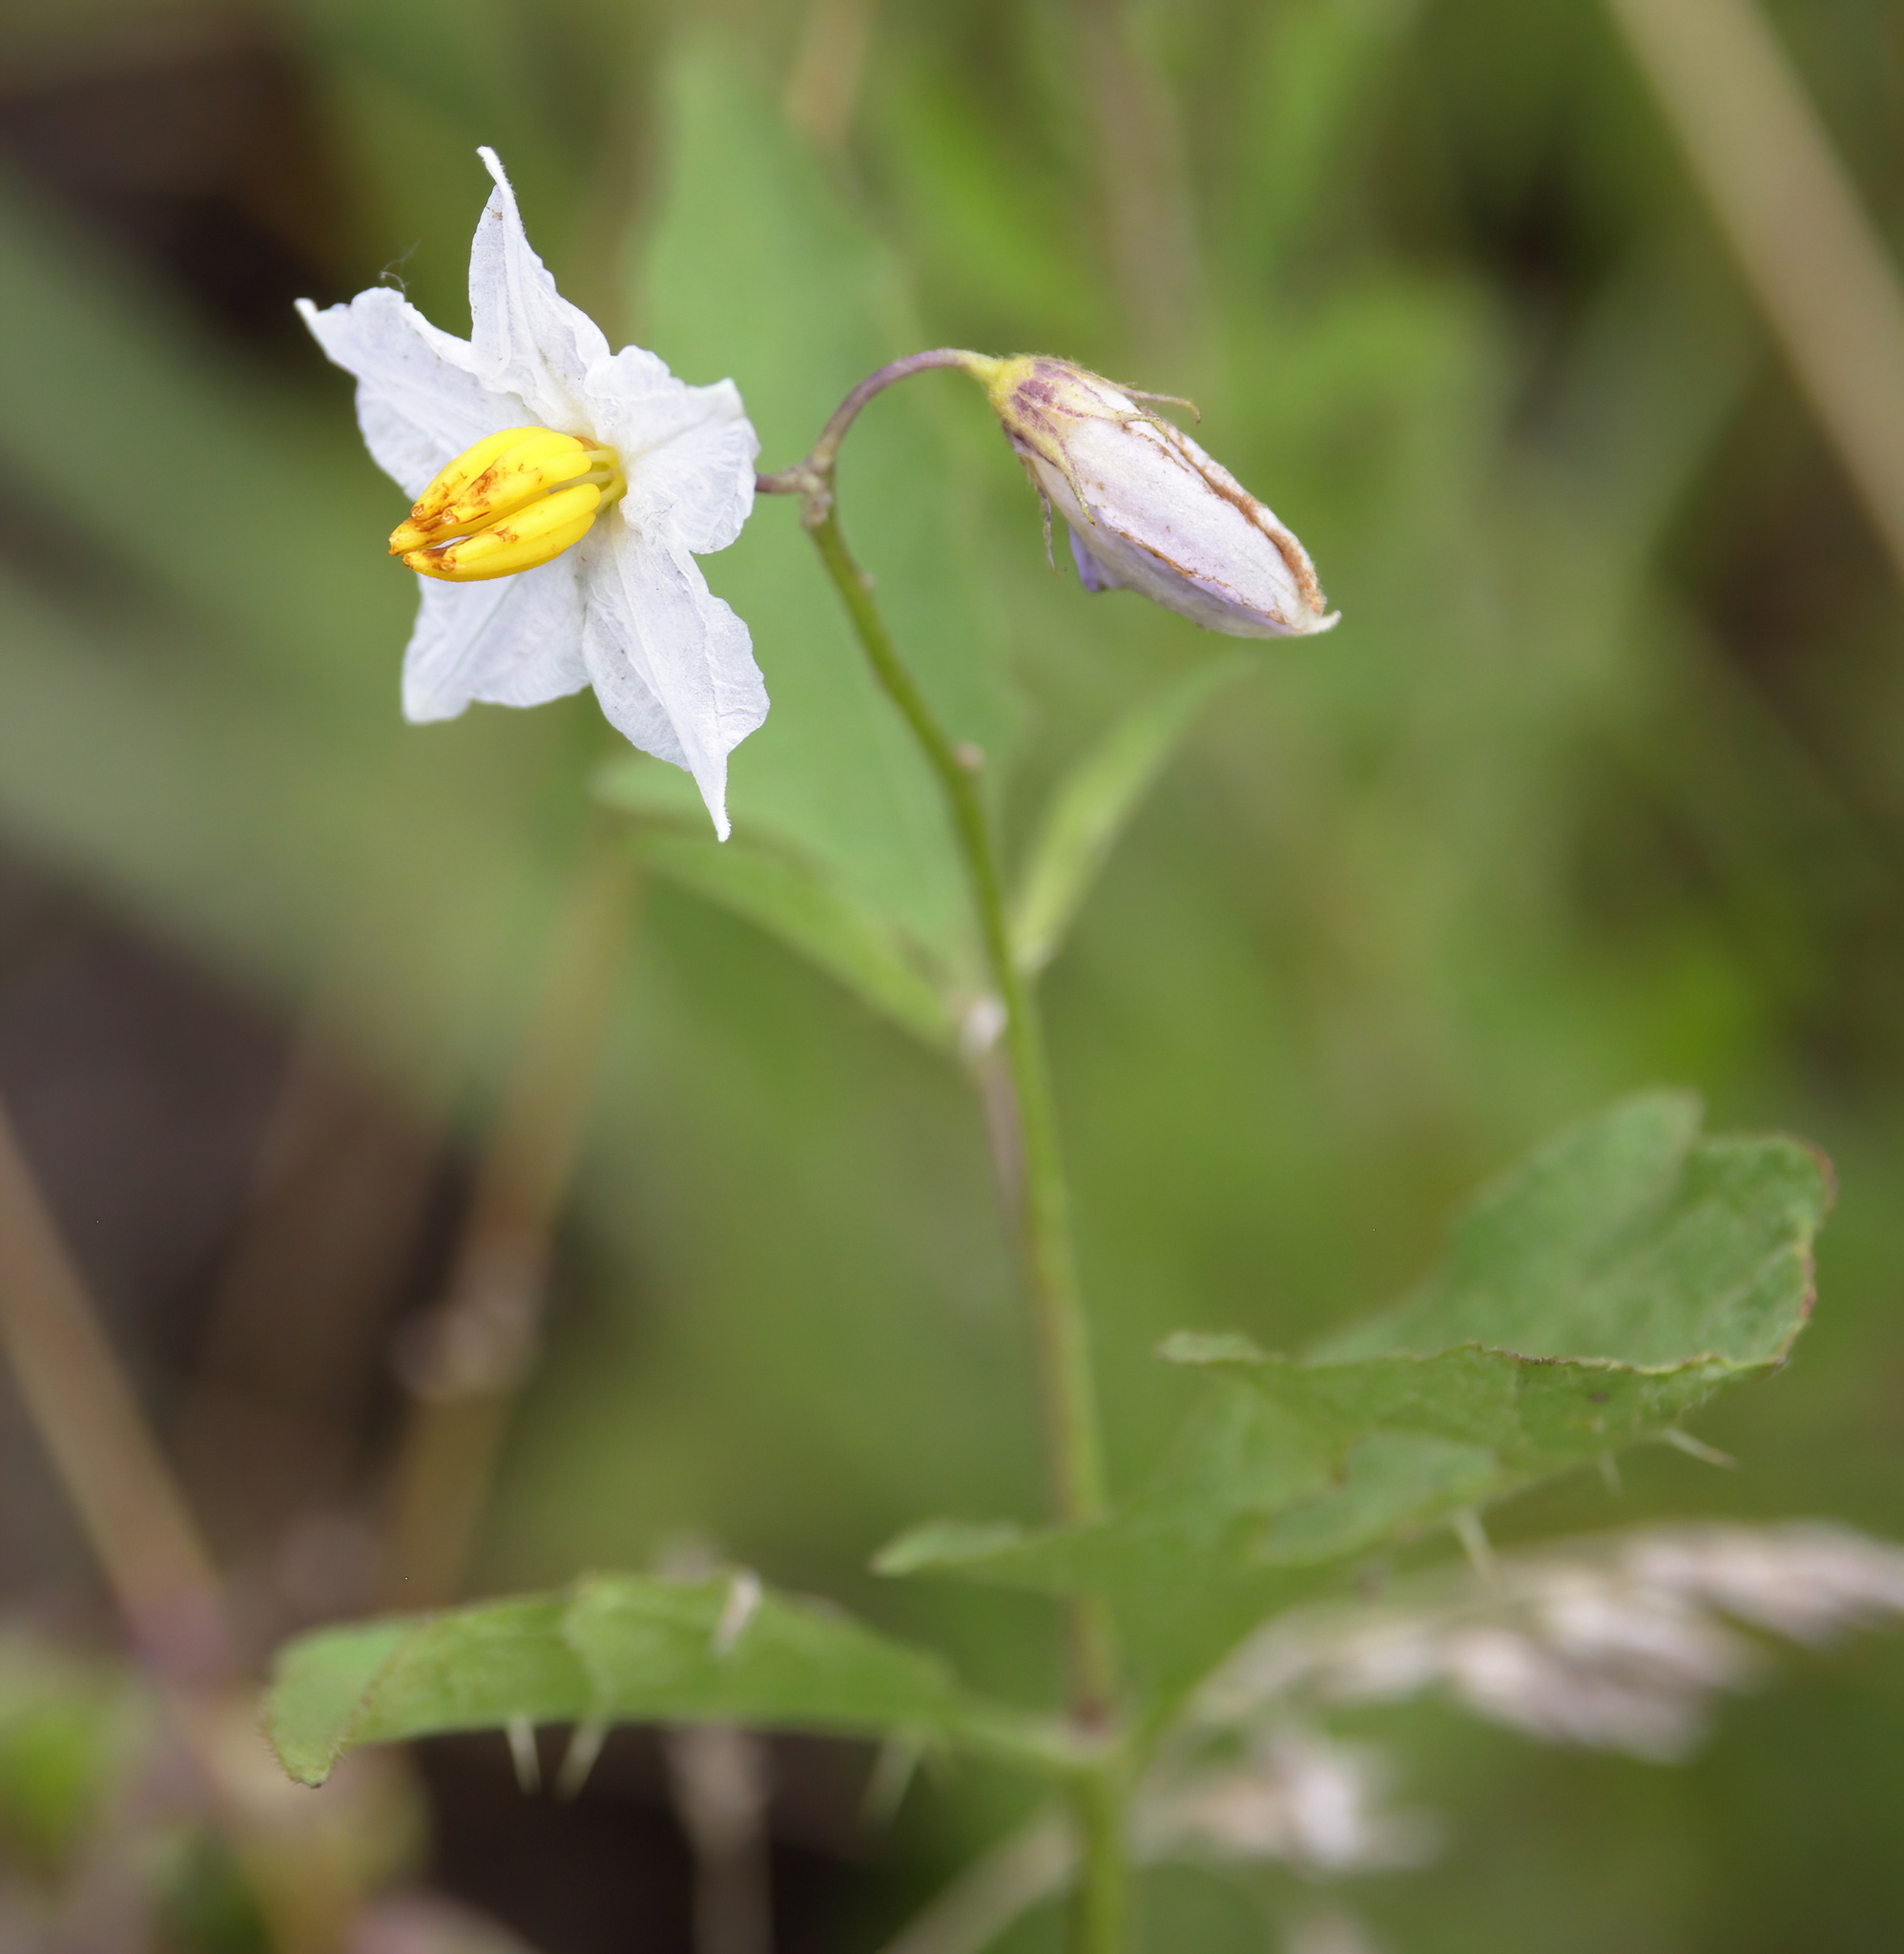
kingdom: Plantae
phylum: Tracheophyta
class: Magnoliopsida
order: Solanales
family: Solanaceae
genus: Solanum
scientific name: Solanum carolinense
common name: Horse-nettle
